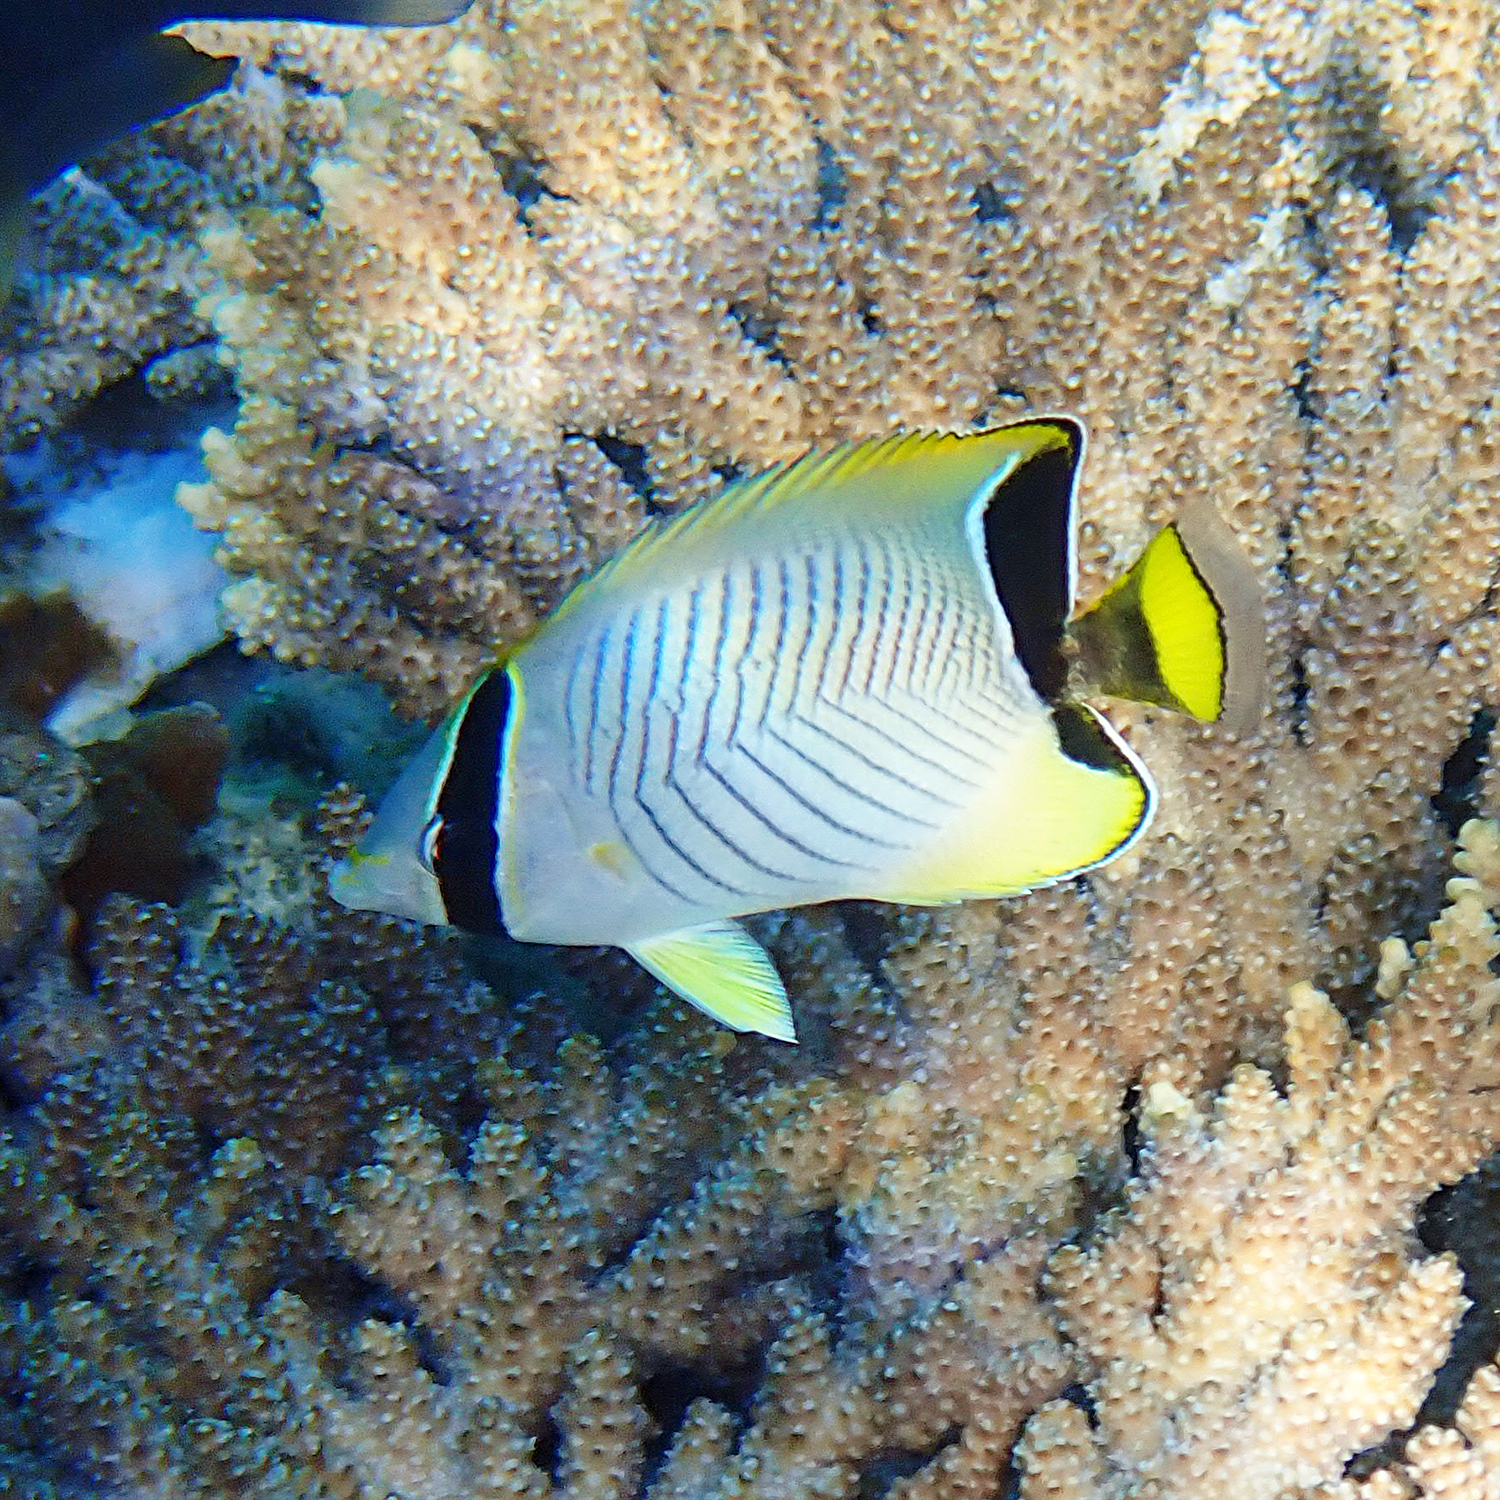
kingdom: Animalia
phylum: Chordata
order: Perciformes
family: Chaetodontidae
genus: Chaetodon
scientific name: Chaetodon trifascialis
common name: Chevroned butterflyfish
